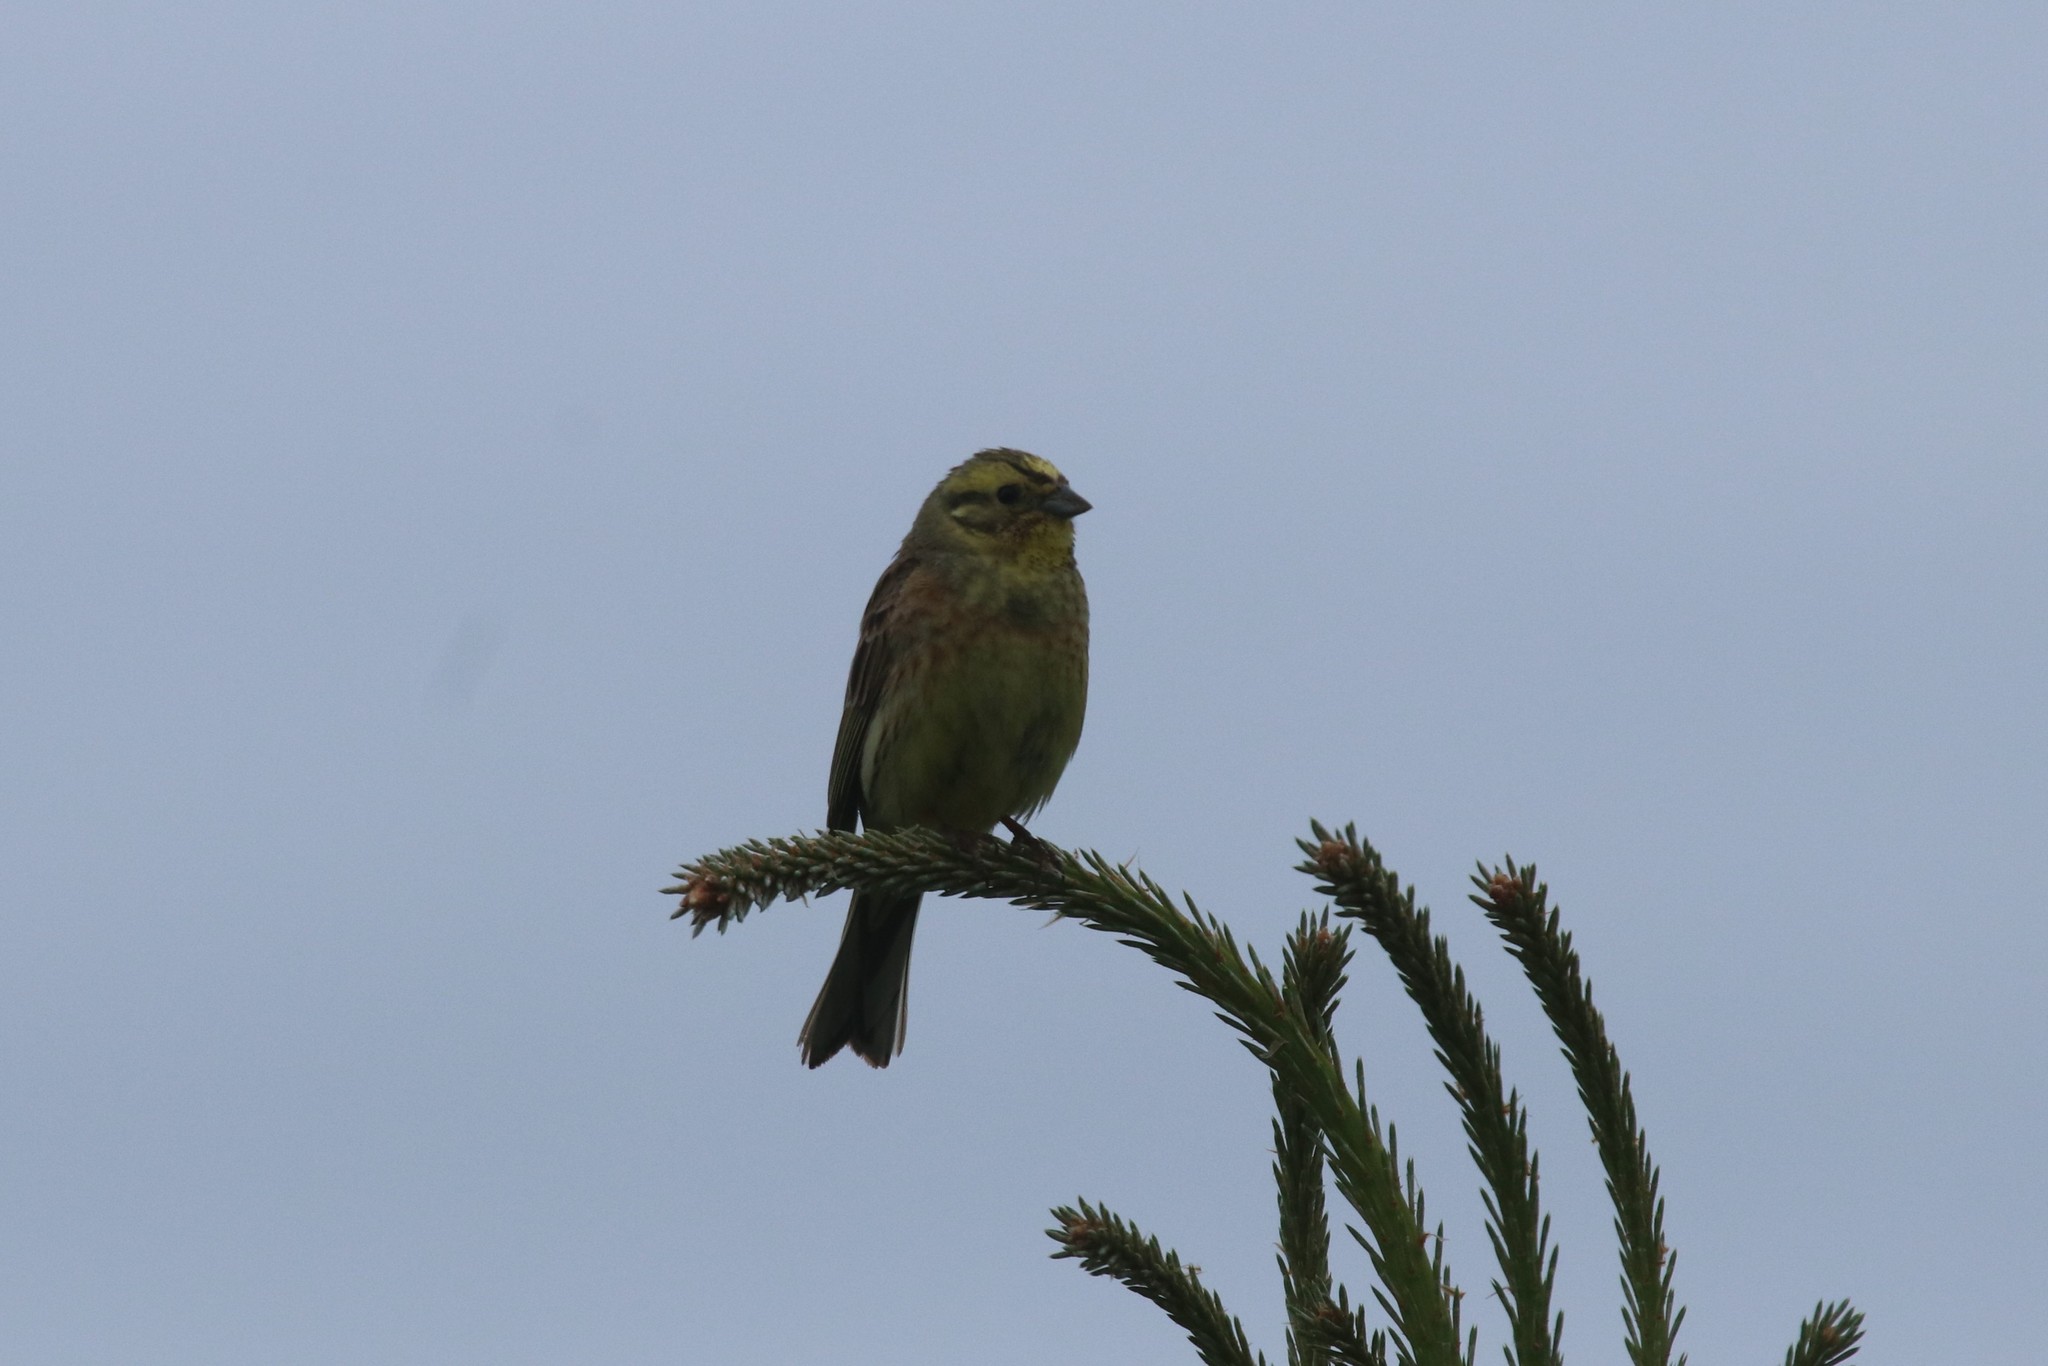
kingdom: Animalia
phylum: Chordata
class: Aves
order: Passeriformes
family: Emberizidae
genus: Emberiza
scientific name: Emberiza citrinella
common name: Yellowhammer
